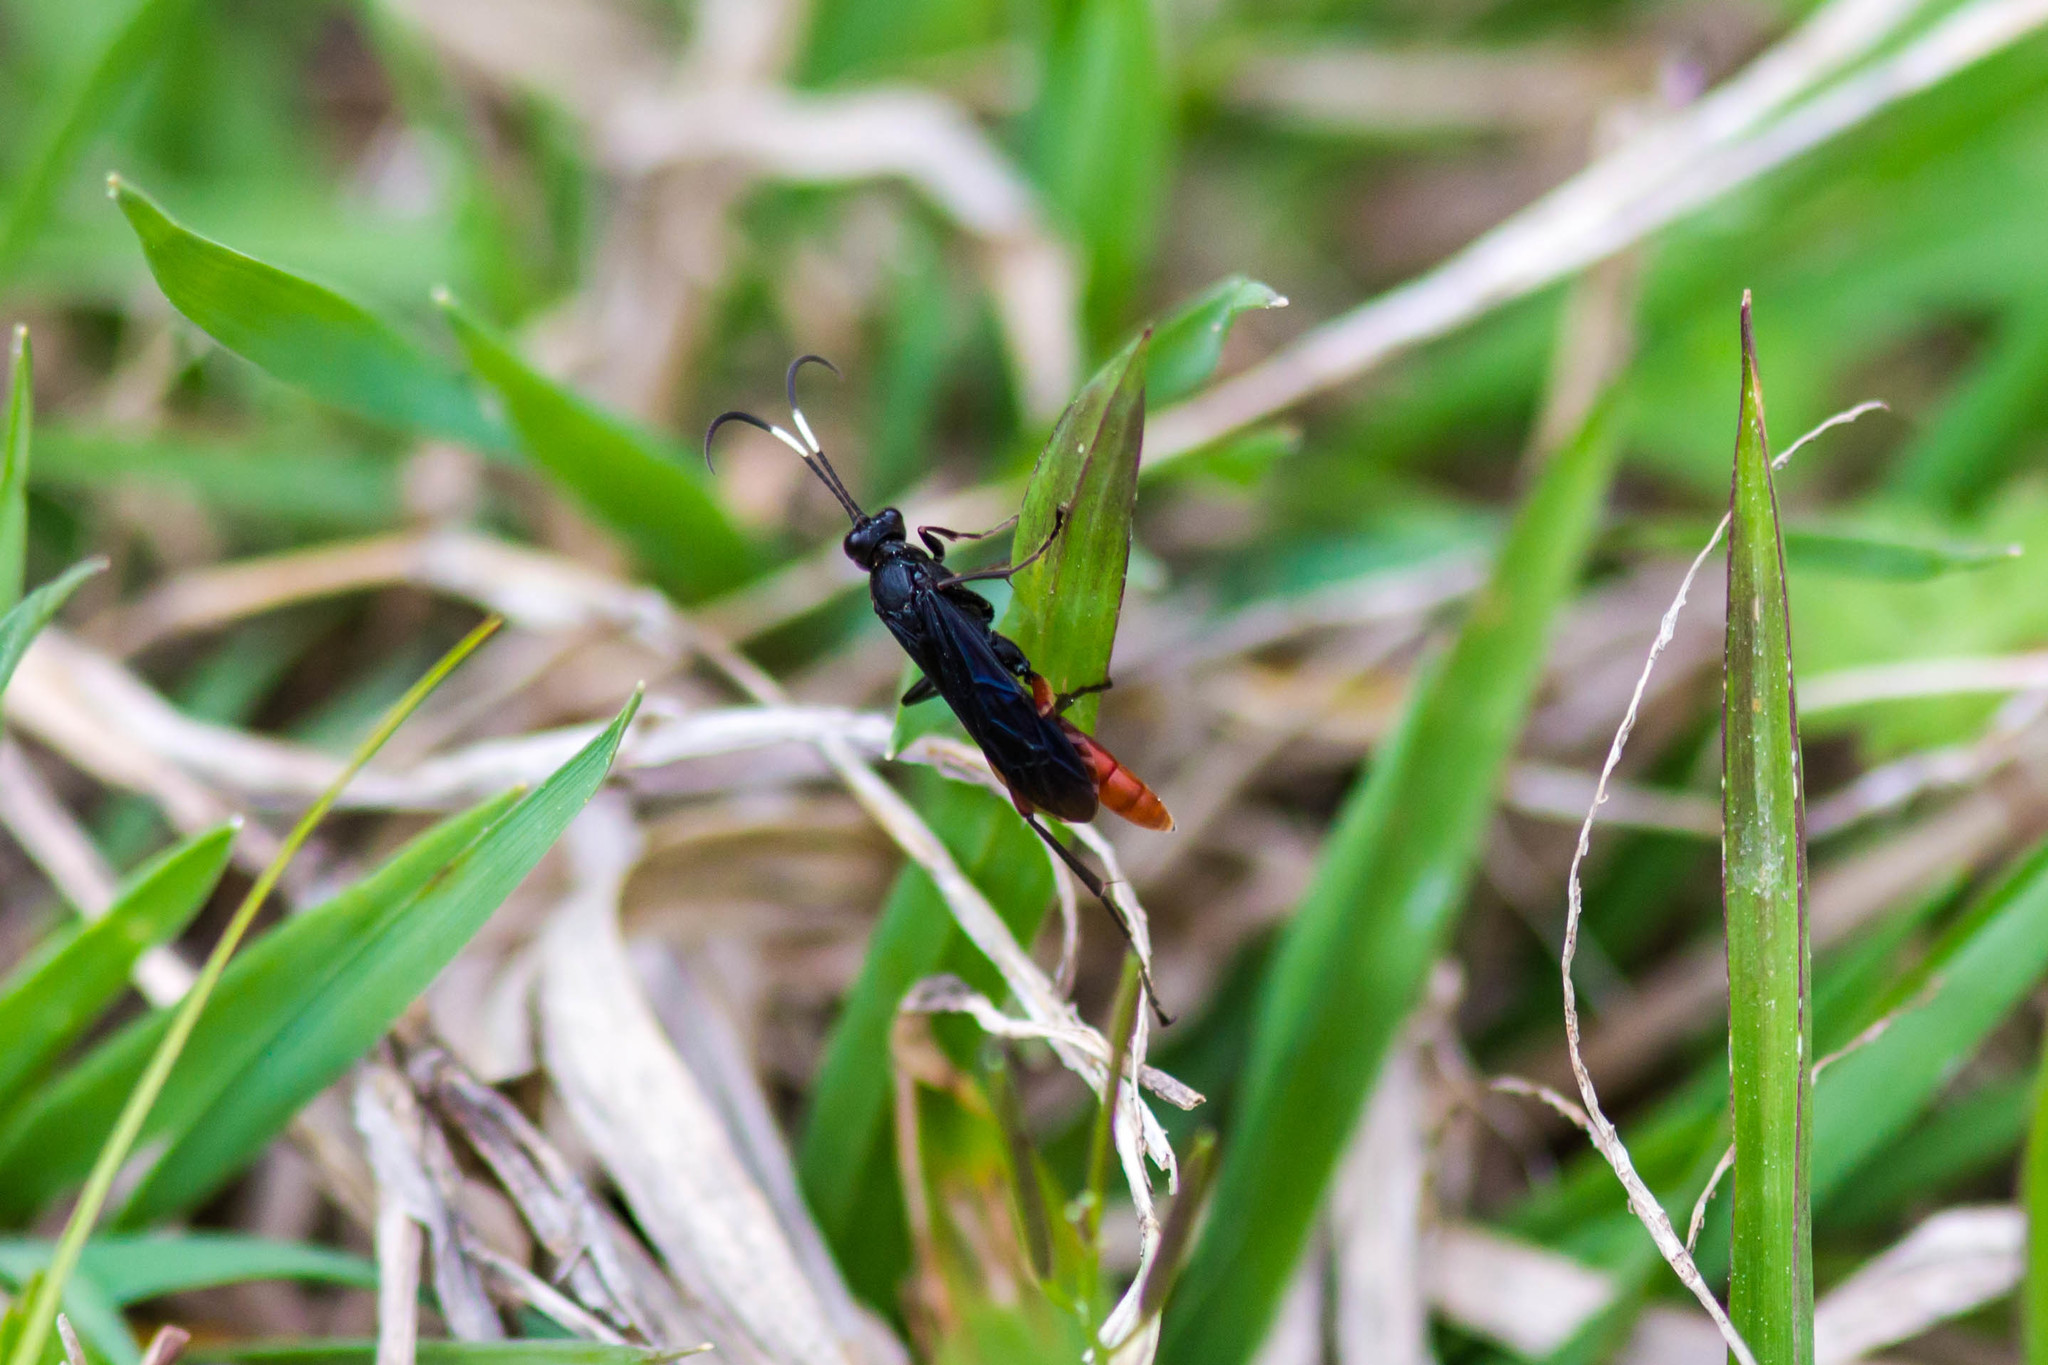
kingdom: Animalia
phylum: Arthropoda
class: Insecta
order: Hymenoptera
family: Ichneumonidae
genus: Limonethe
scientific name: Limonethe maurator
